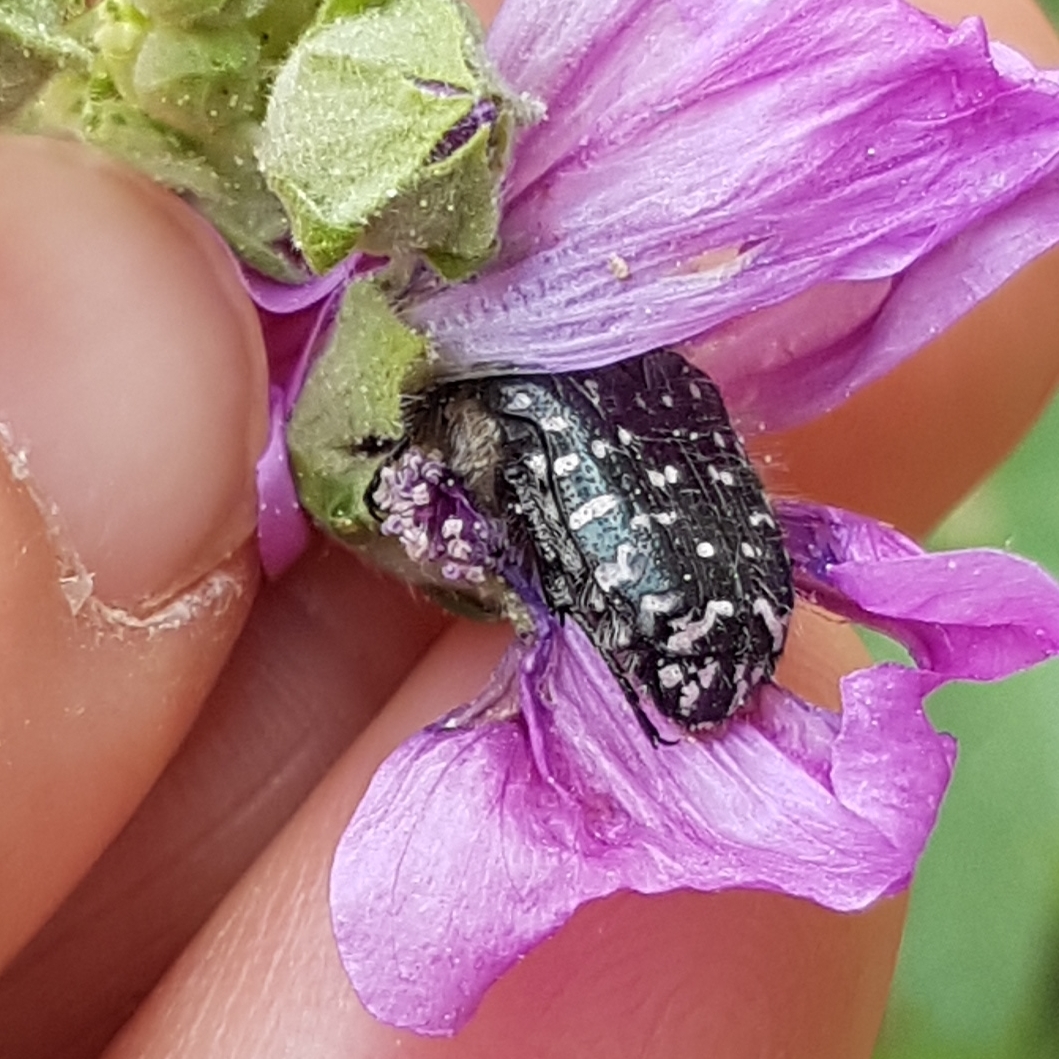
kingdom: Animalia
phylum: Arthropoda
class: Insecta
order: Coleoptera
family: Scarabaeidae
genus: Oxythyrea
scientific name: Oxythyrea funesta
